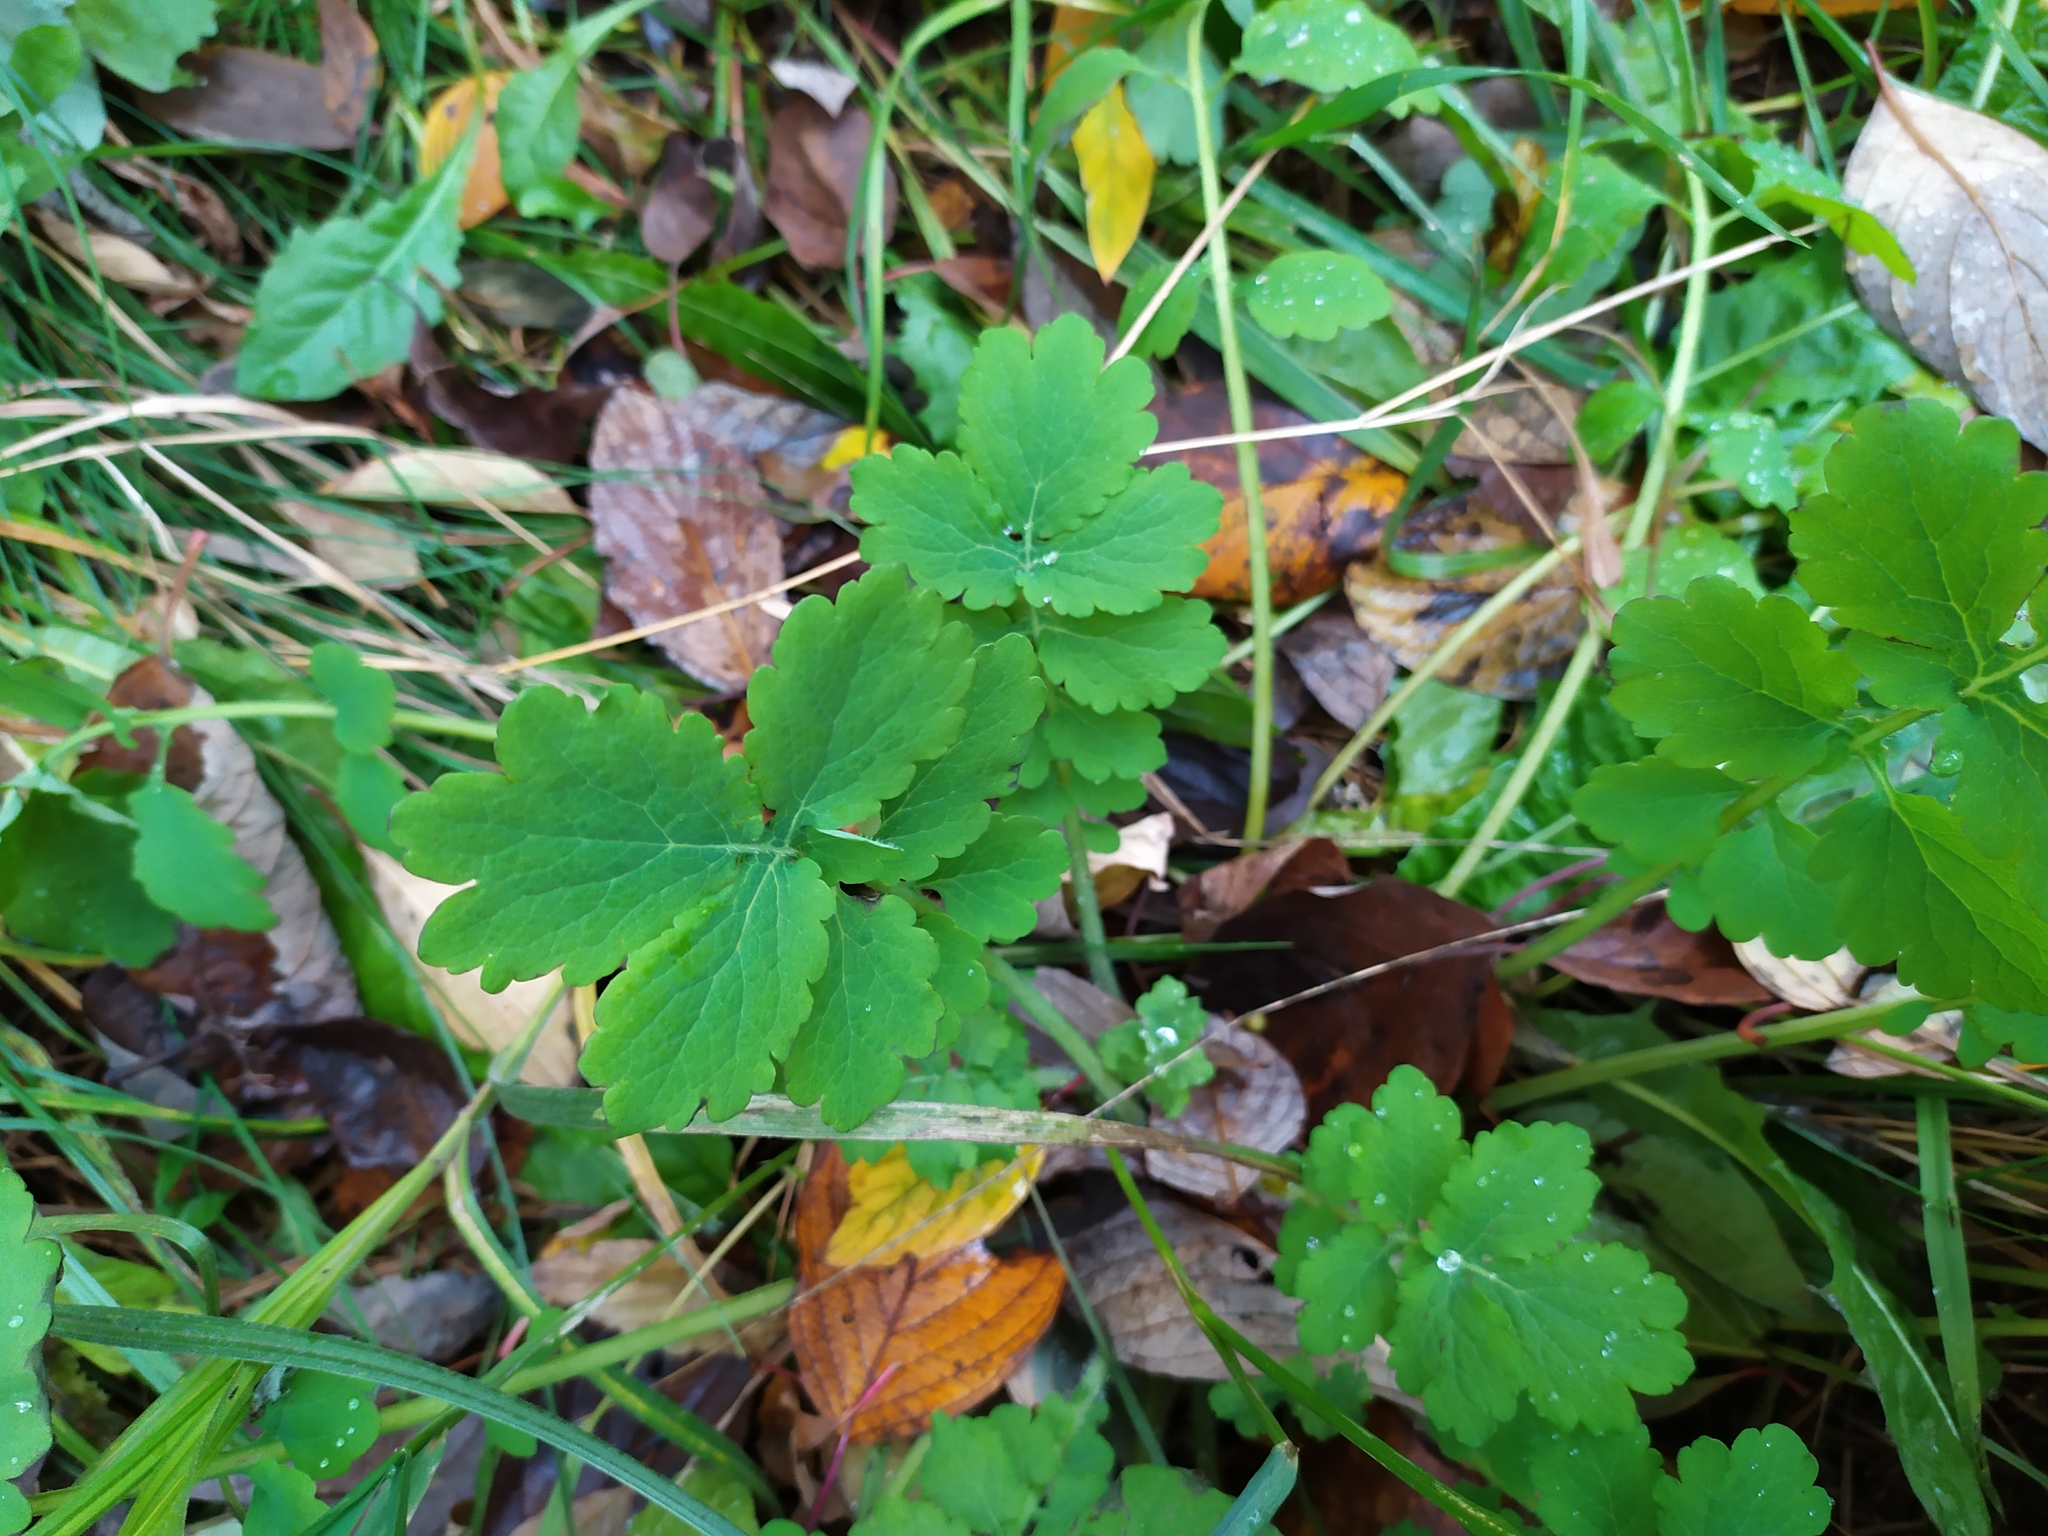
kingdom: Plantae
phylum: Tracheophyta
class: Magnoliopsida
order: Ranunculales
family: Papaveraceae
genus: Chelidonium
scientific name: Chelidonium majus
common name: Greater celandine
